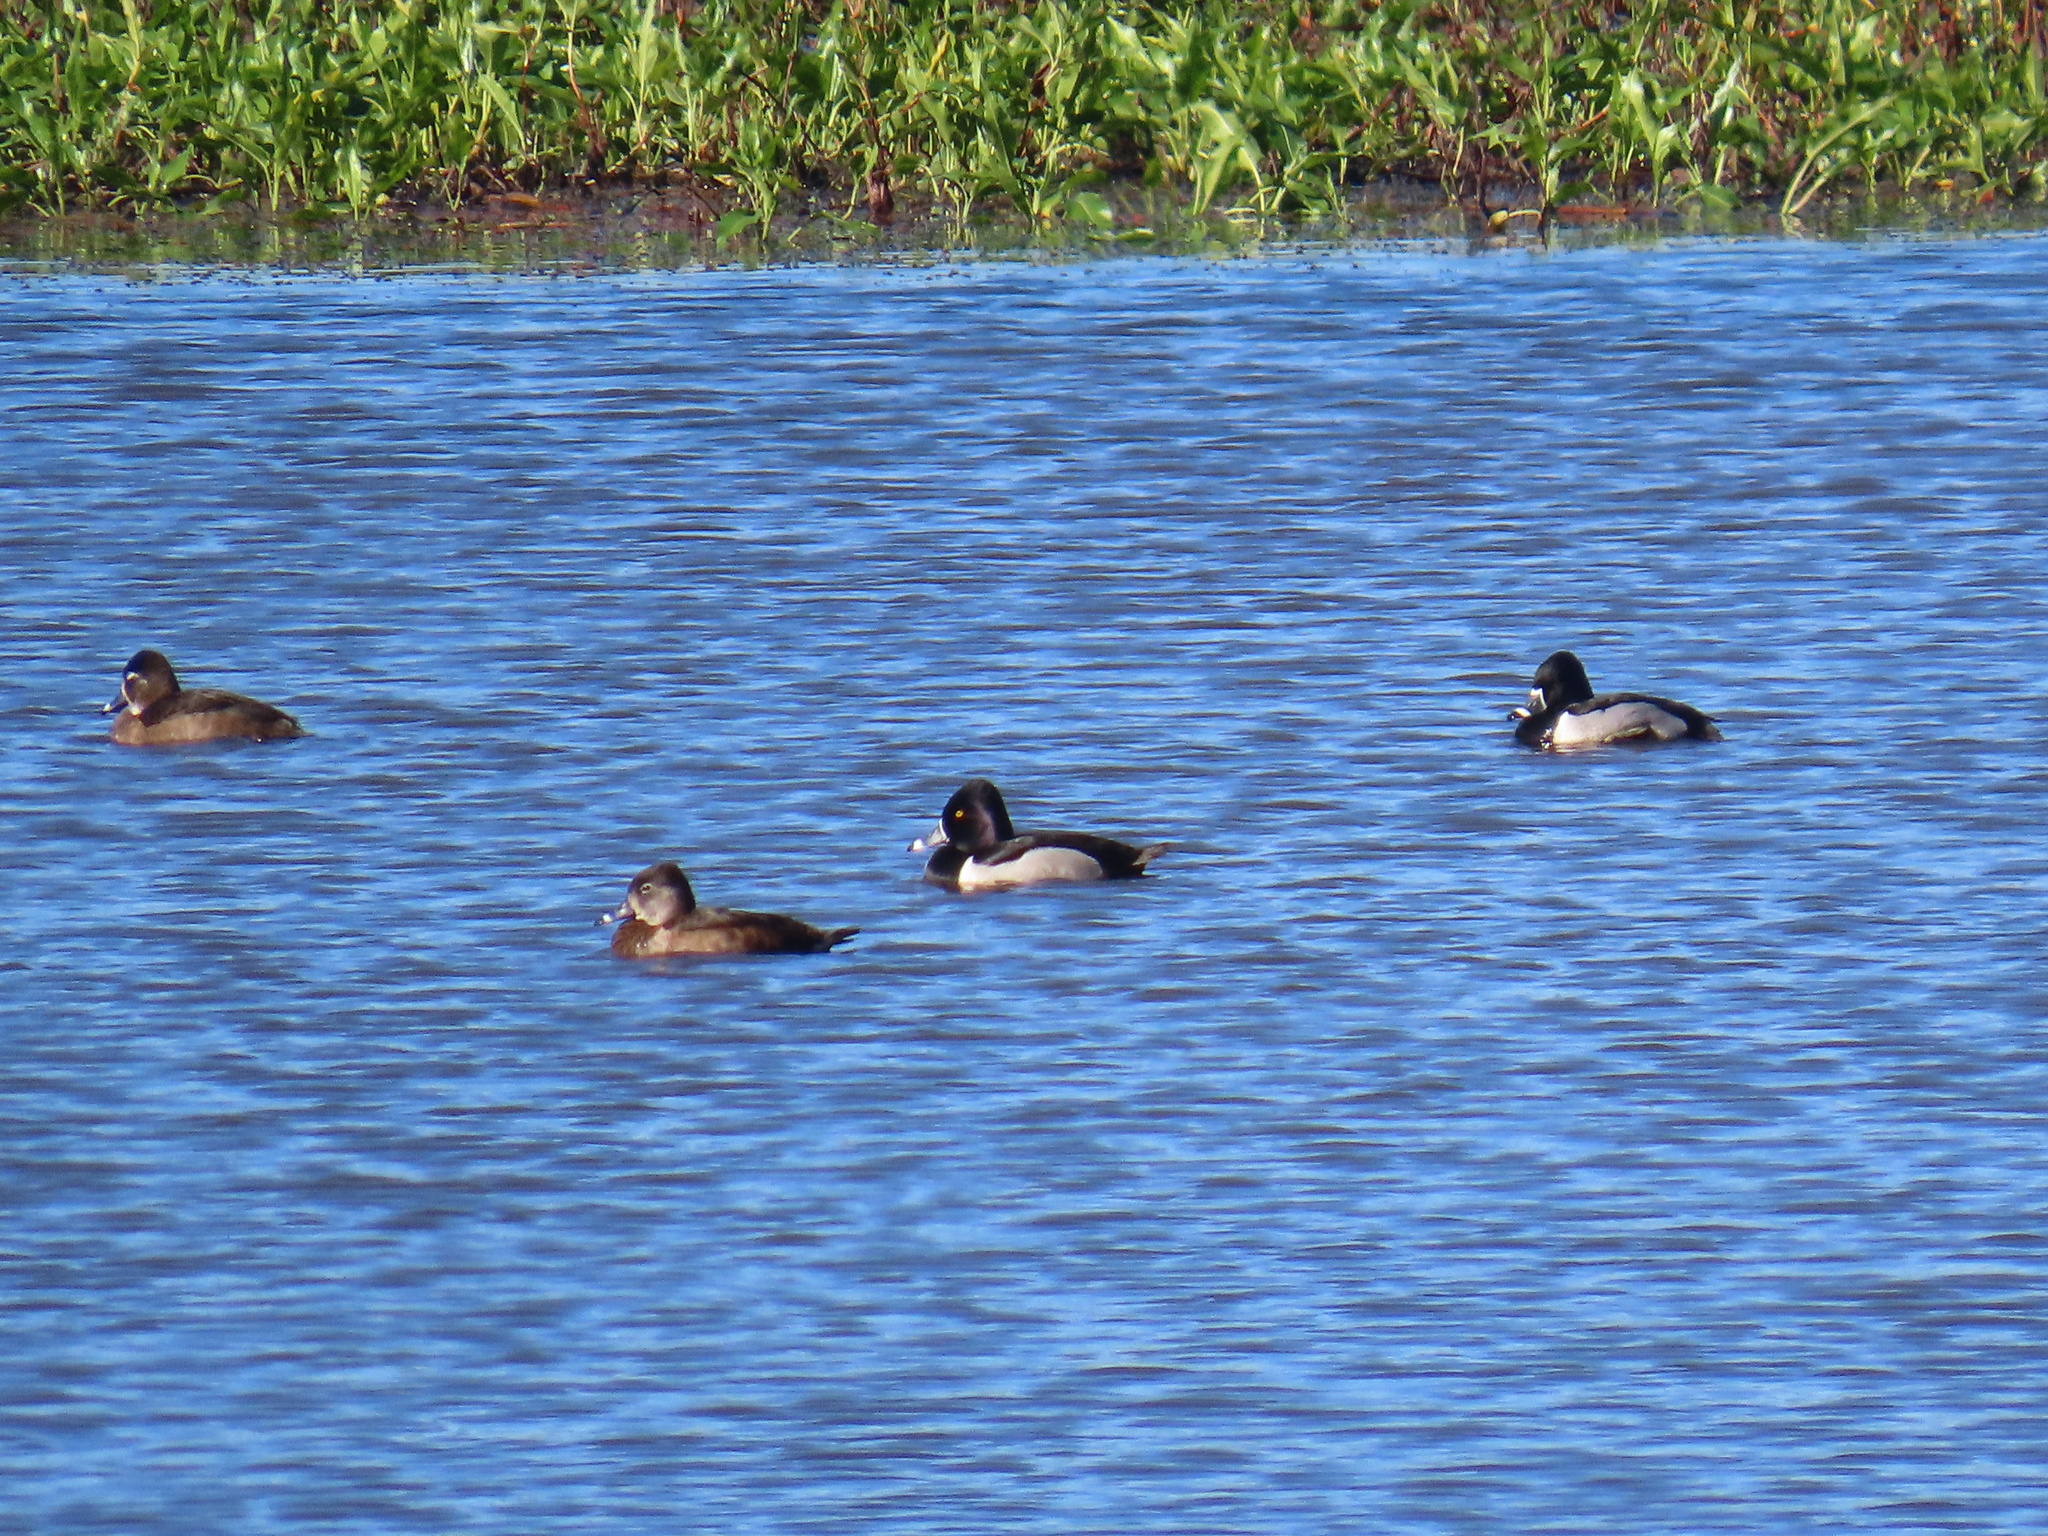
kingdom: Animalia
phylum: Chordata
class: Aves
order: Anseriformes
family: Anatidae
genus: Aythya
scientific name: Aythya collaris
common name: Ring-necked duck
